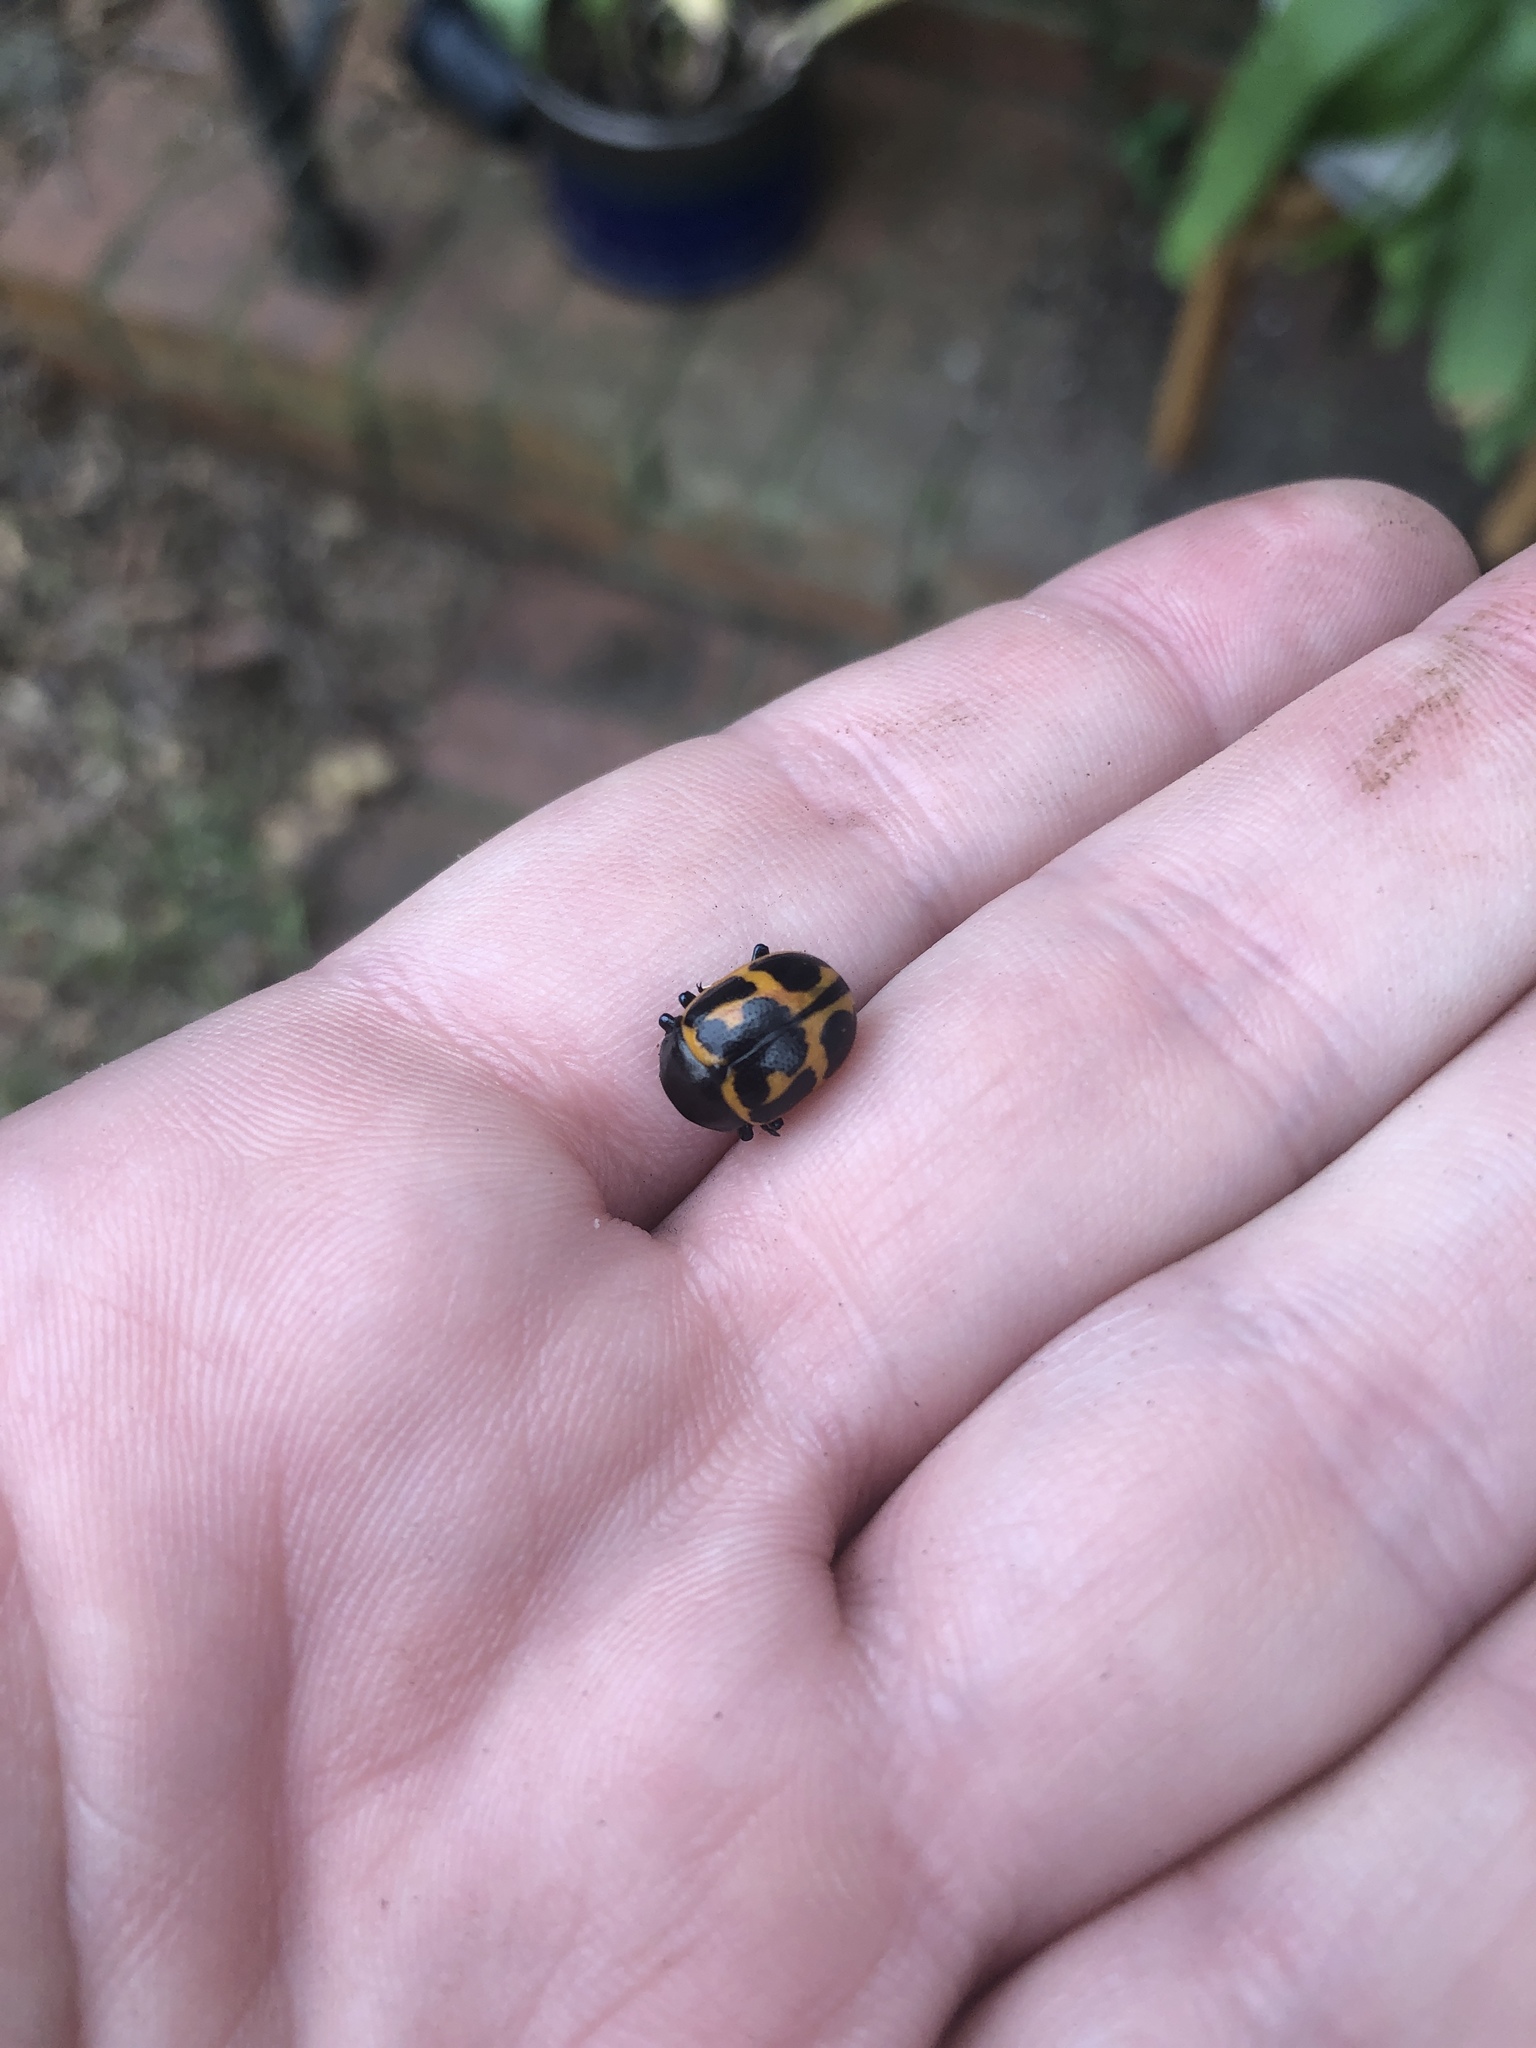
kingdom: Animalia
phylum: Arthropoda
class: Insecta
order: Coleoptera
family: Chrysomelidae
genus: Labidomera
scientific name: Labidomera clivicollis
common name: Swamp milkweed leaf beetle
